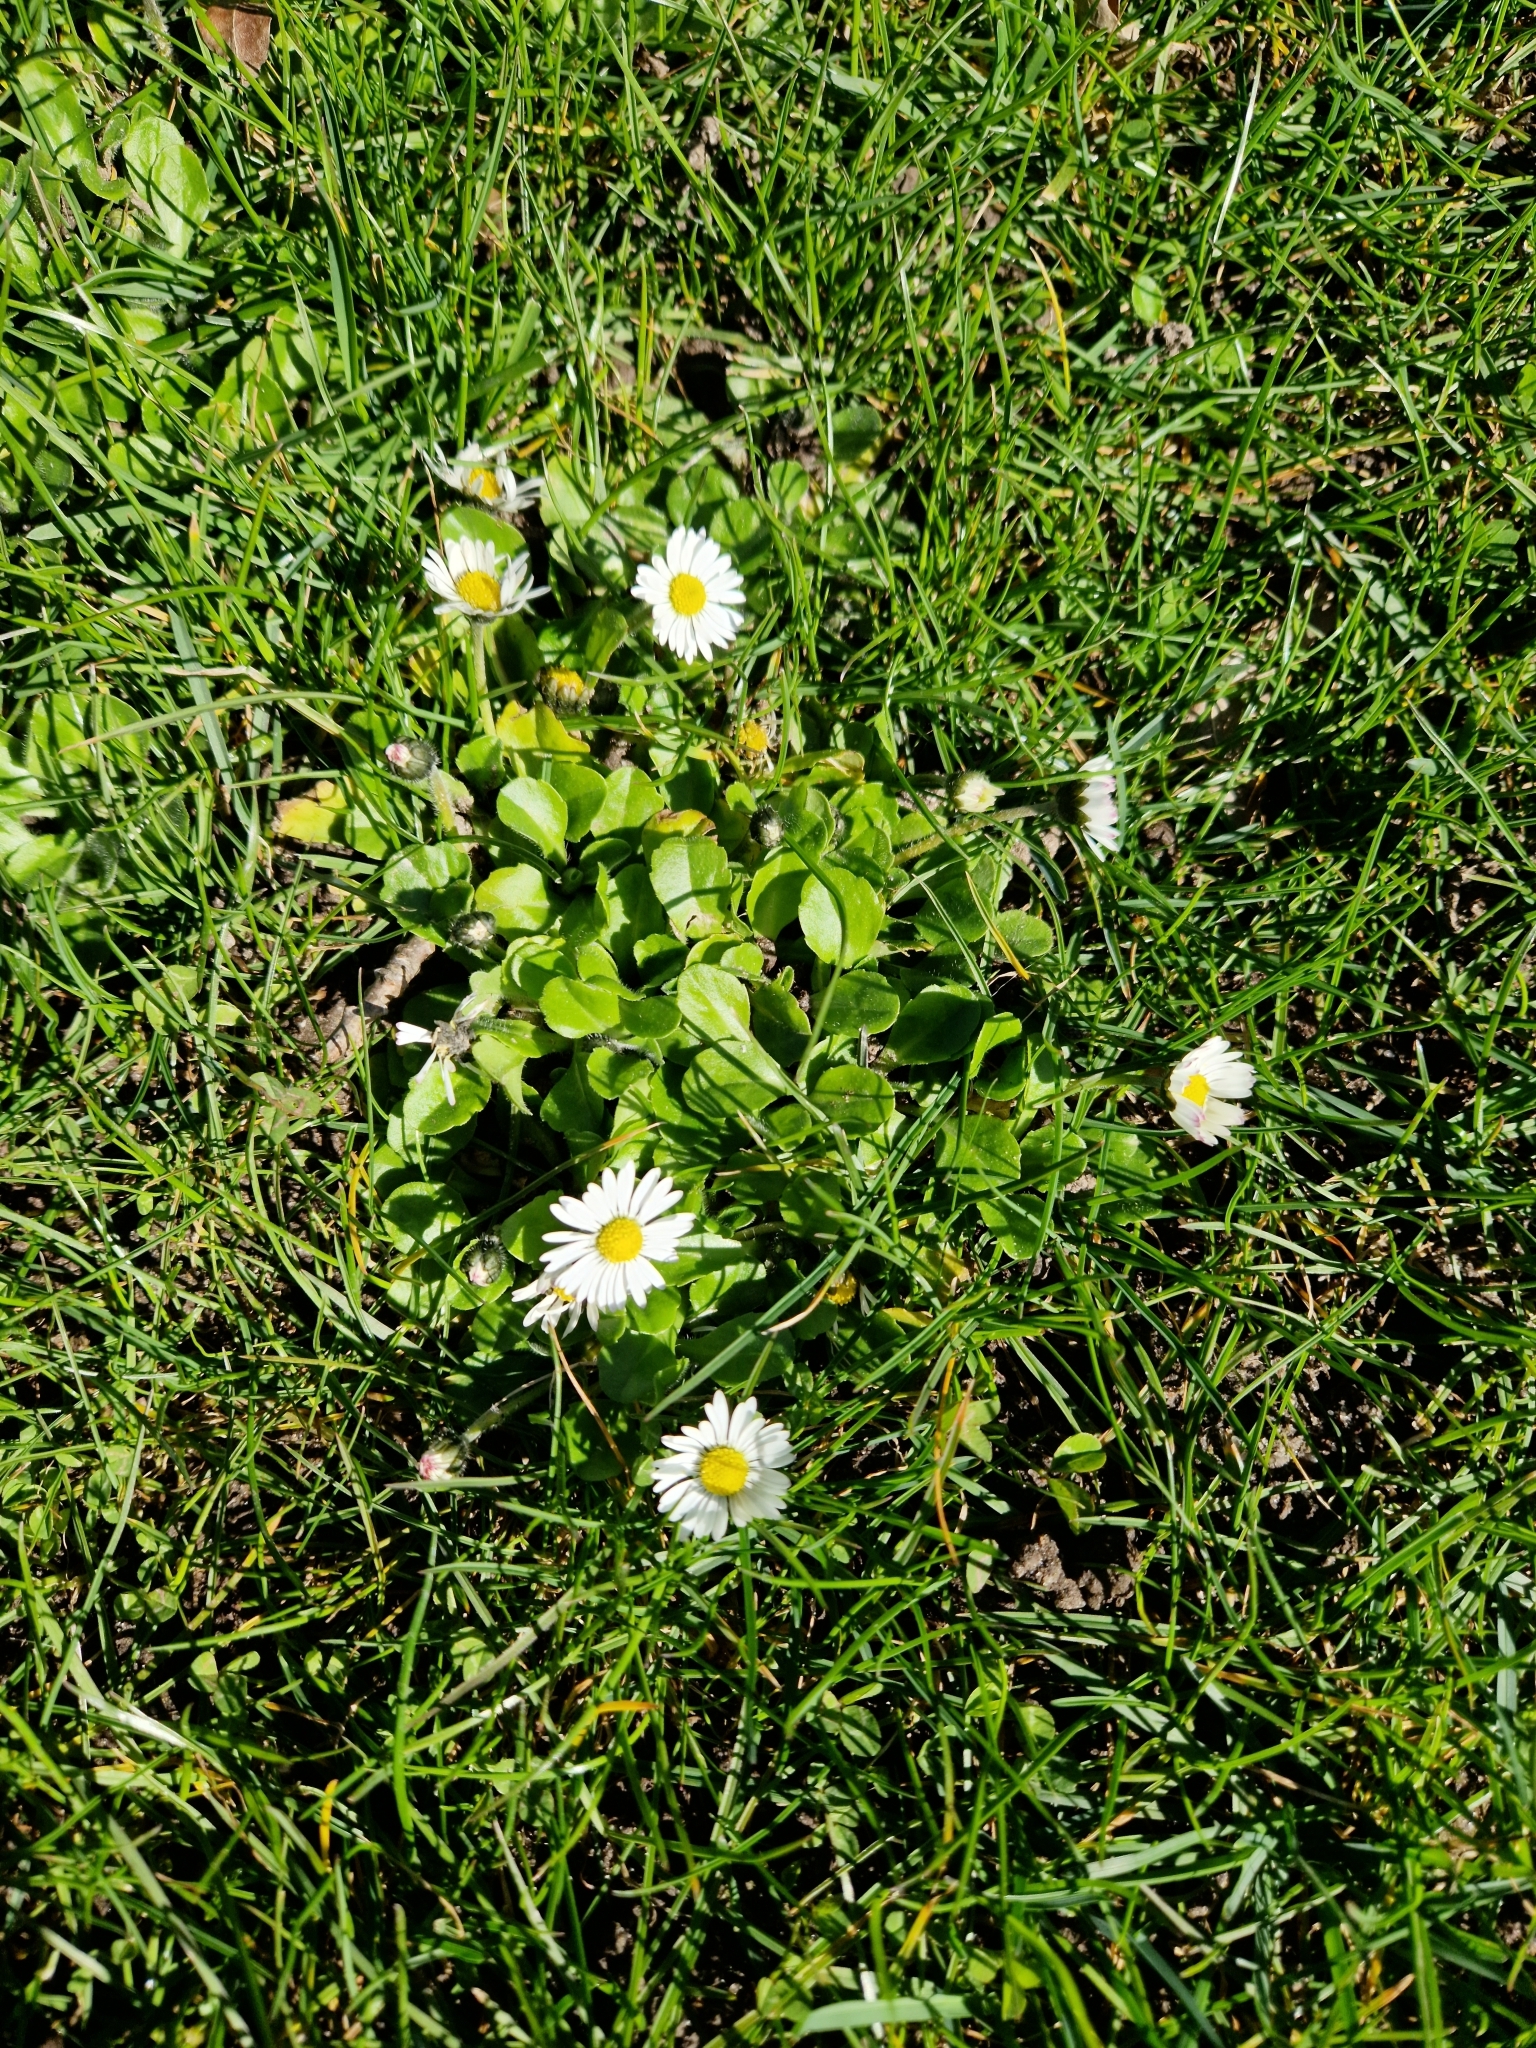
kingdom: Plantae
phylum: Tracheophyta
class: Magnoliopsida
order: Asterales
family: Asteraceae
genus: Bellis
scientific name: Bellis perennis
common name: Lawndaisy
